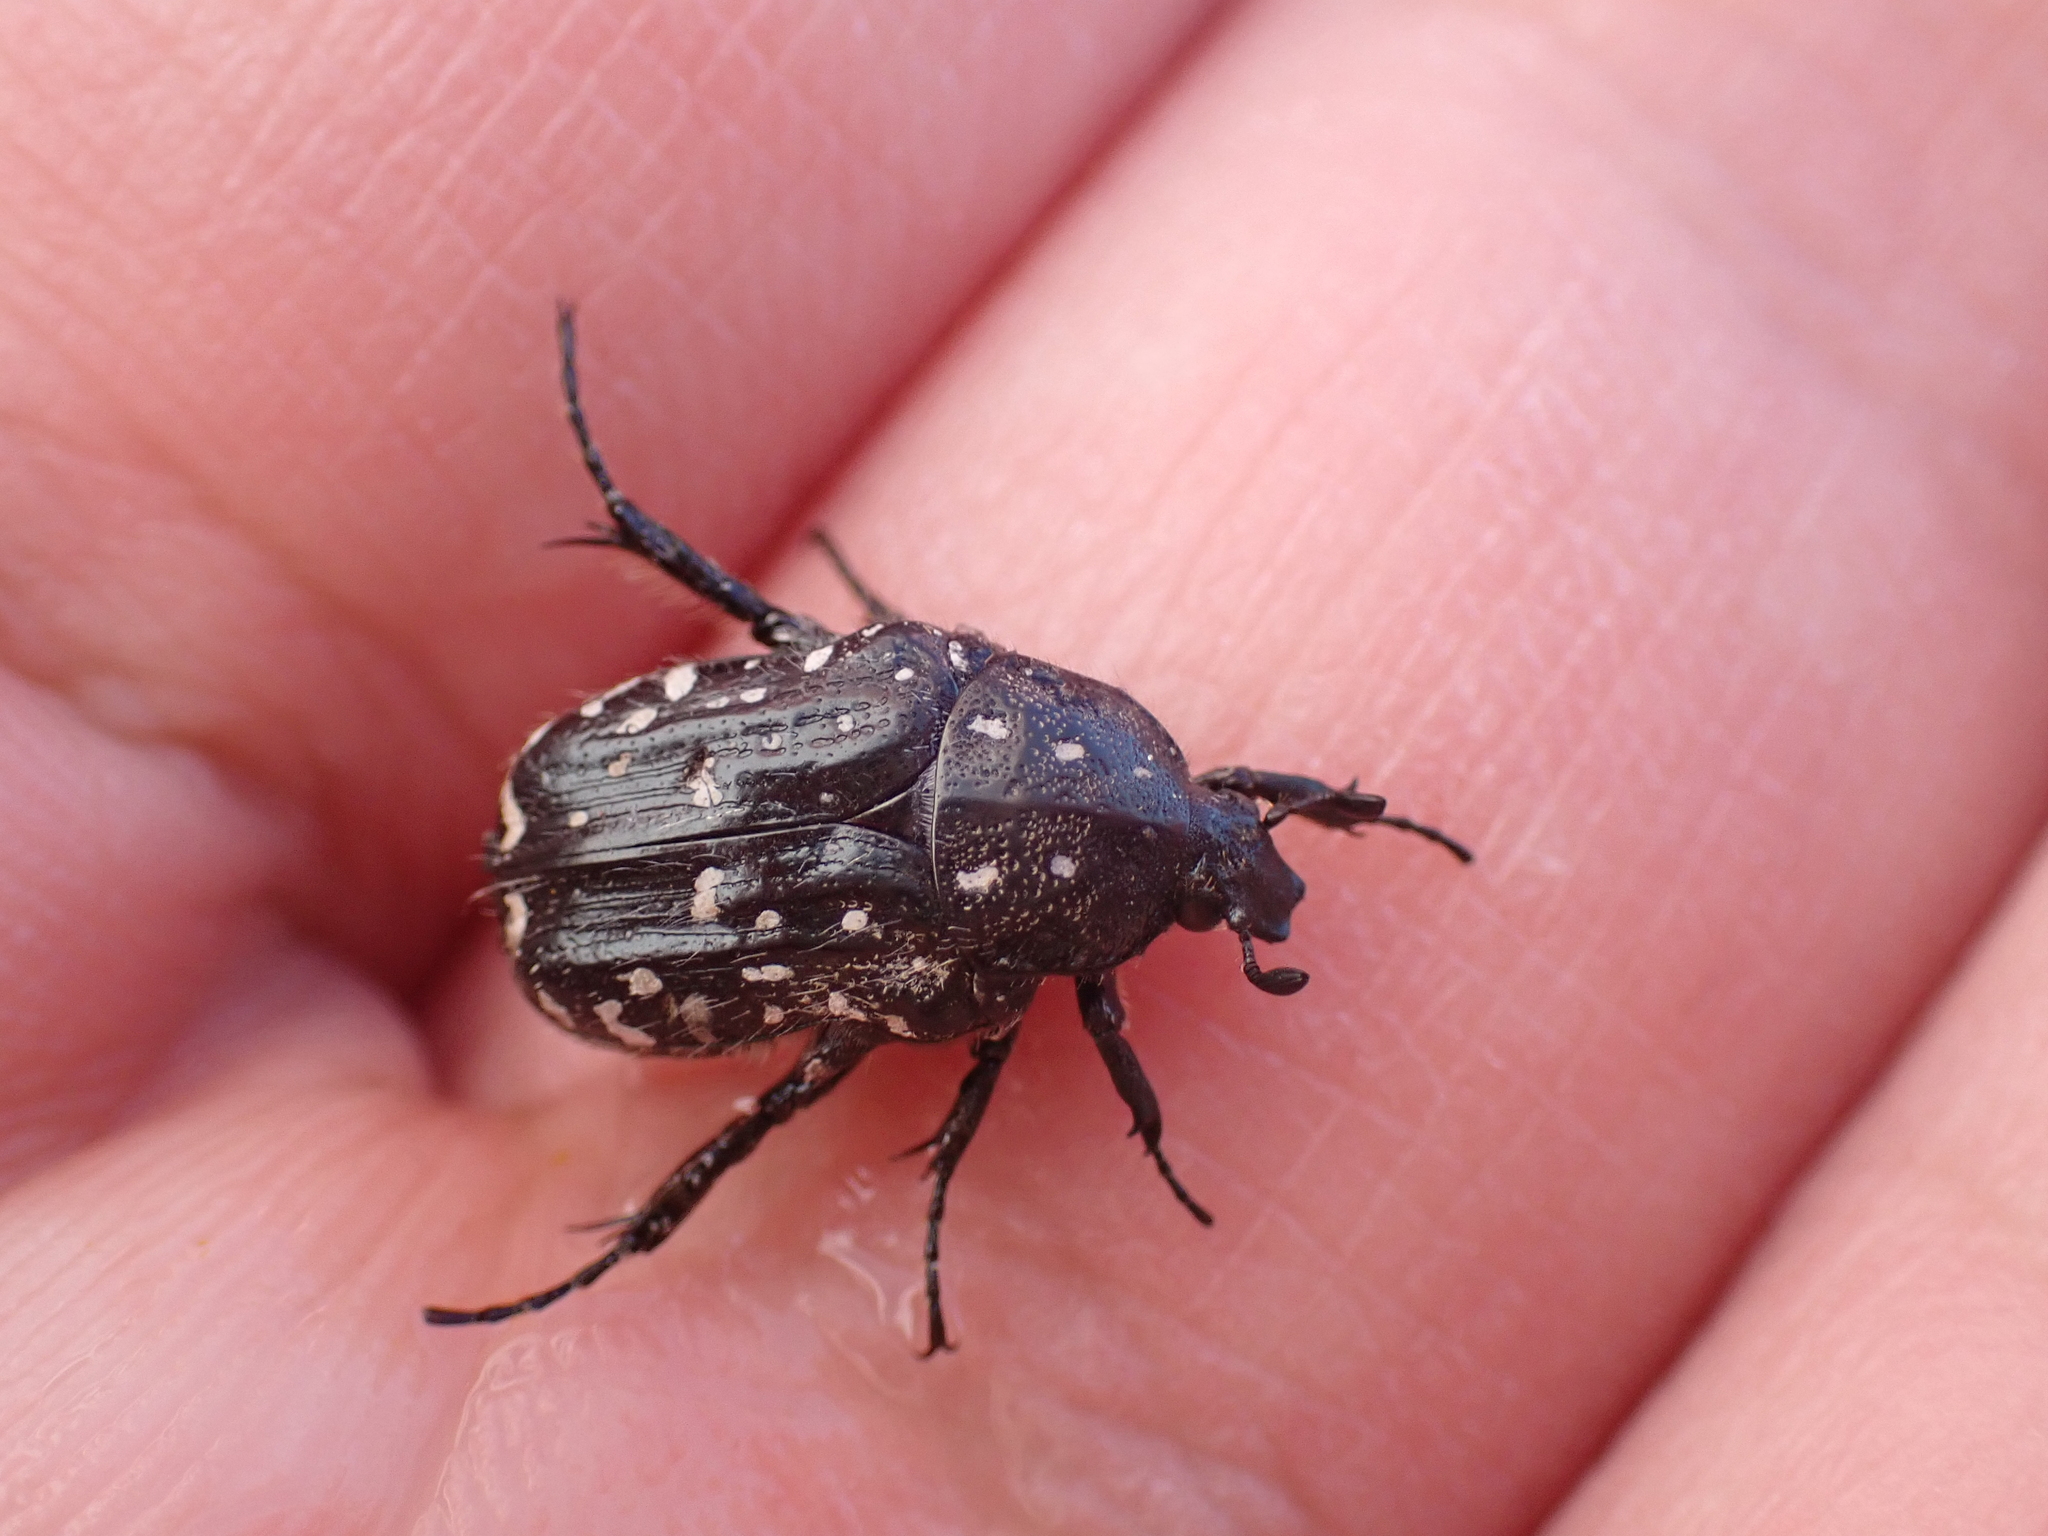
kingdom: Animalia
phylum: Arthropoda
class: Insecta
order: Coleoptera
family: Scarabaeidae
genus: Oxythyrea
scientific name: Oxythyrea funesta
